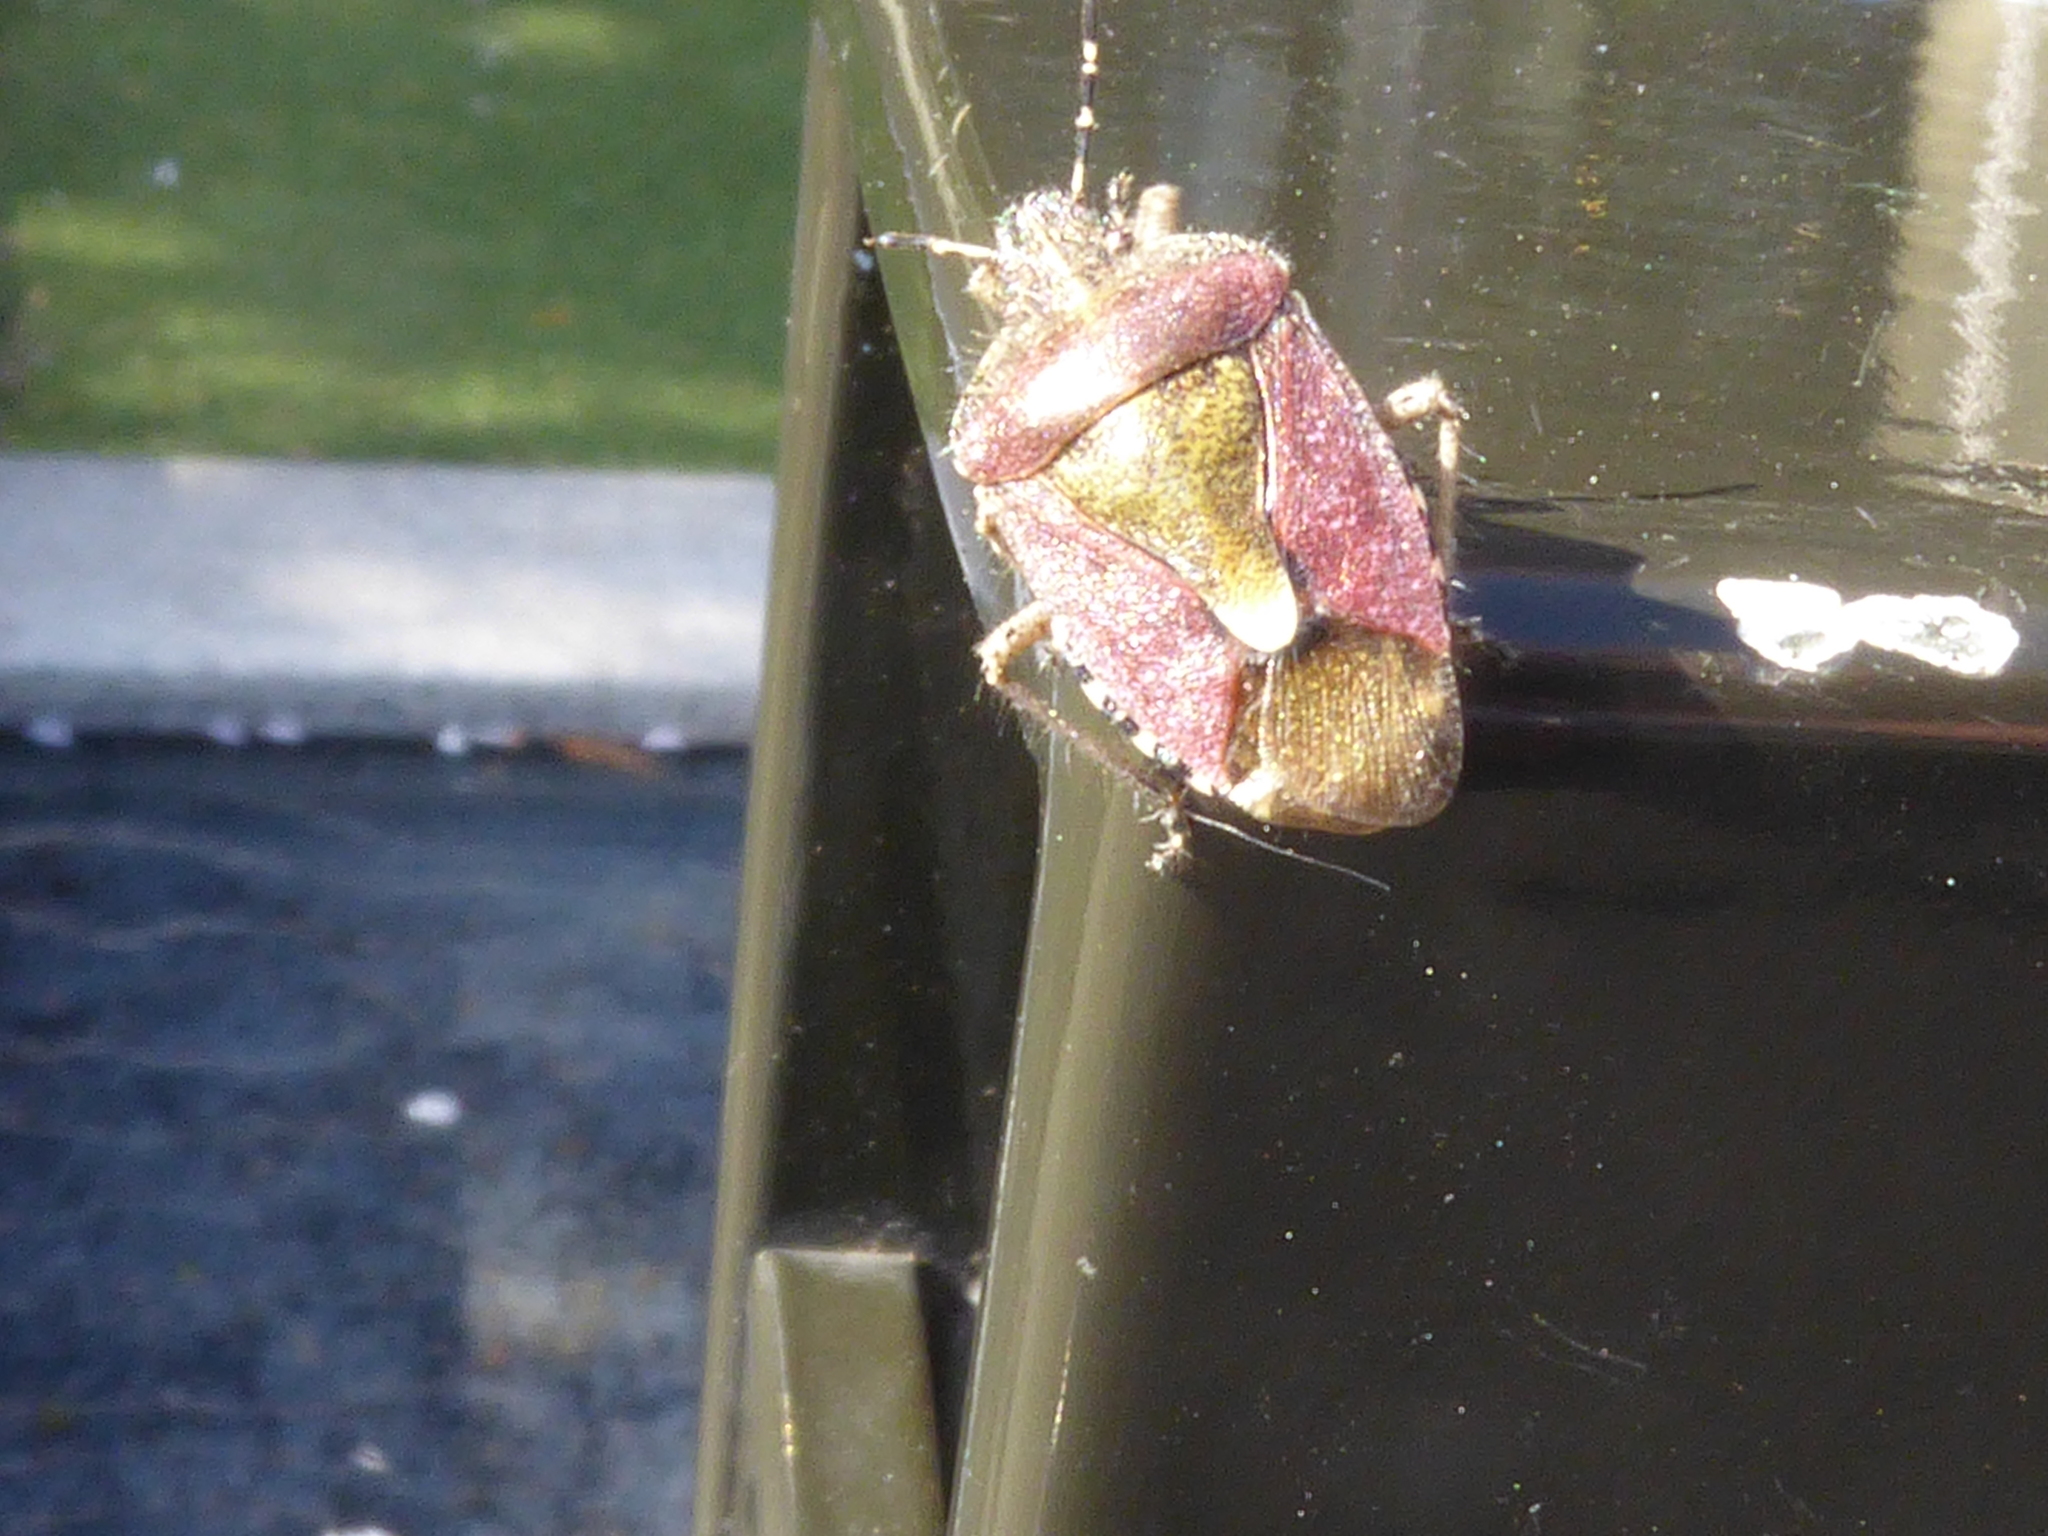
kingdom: Animalia
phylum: Arthropoda
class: Insecta
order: Hemiptera
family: Pentatomidae
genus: Dolycoris
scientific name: Dolycoris baccarum
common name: Sloe bug
